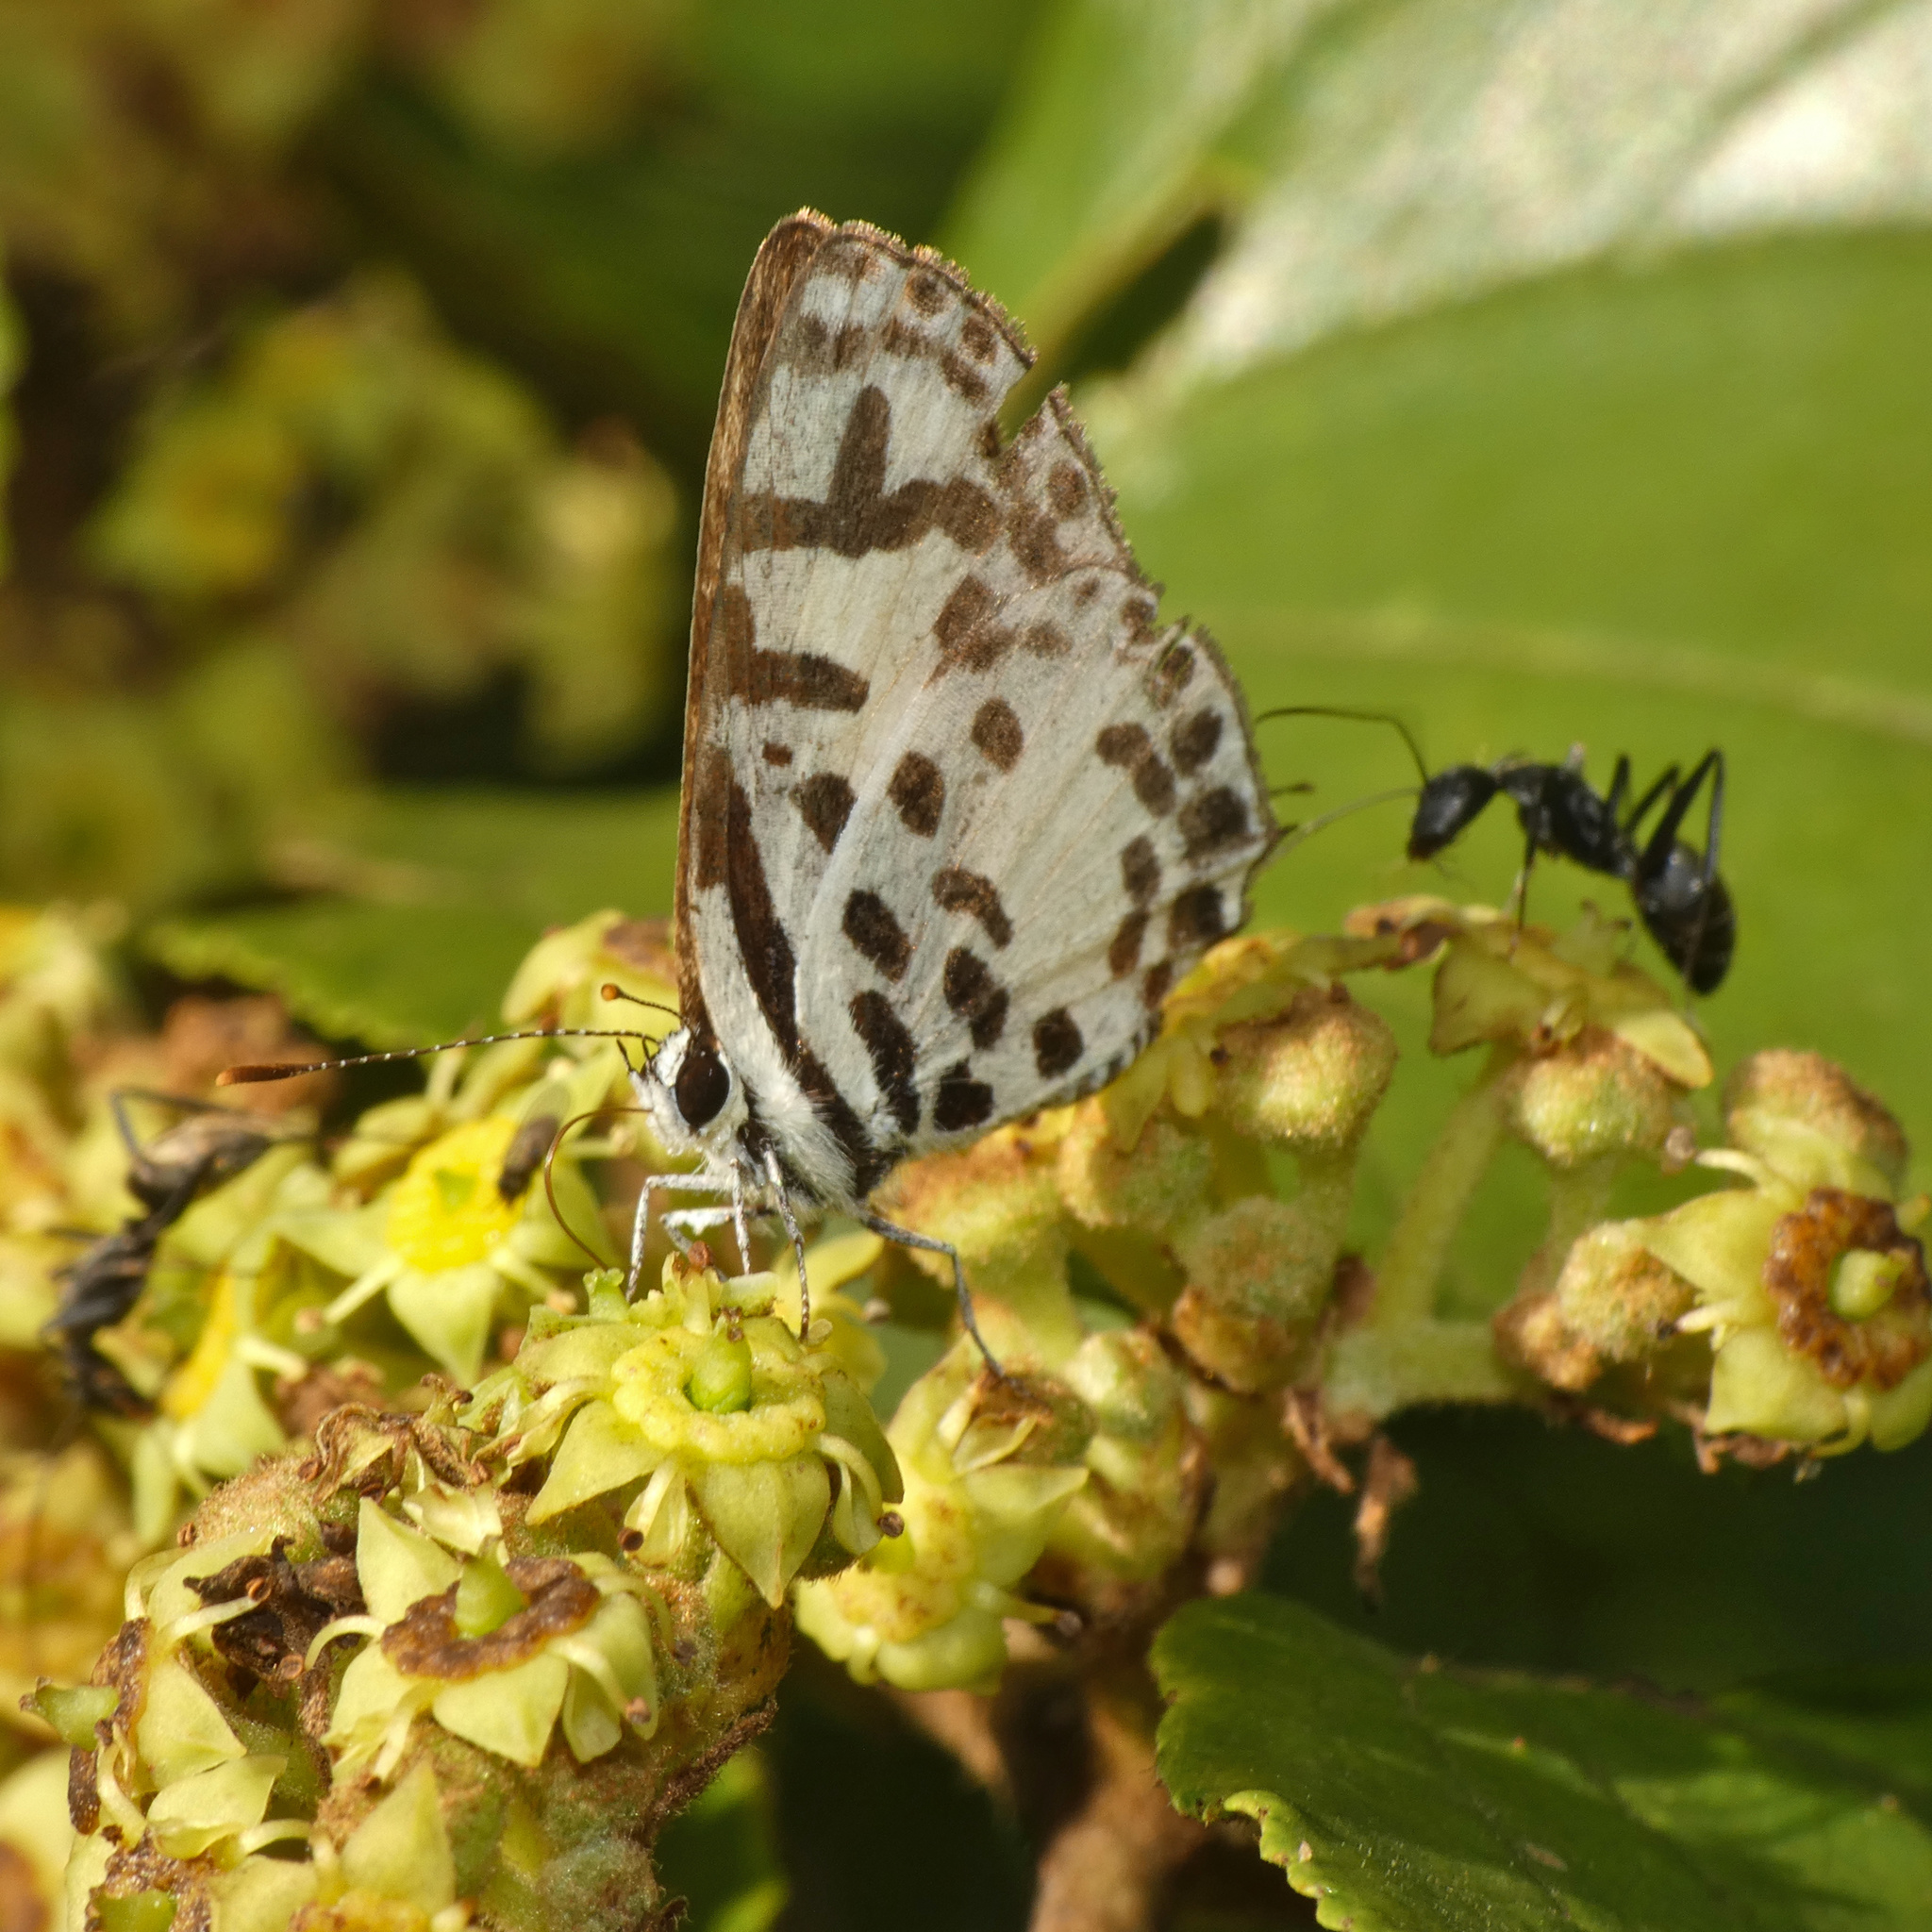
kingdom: Animalia
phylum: Arthropoda
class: Insecta
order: Lepidoptera
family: Lycaenidae
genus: Castalius
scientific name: Castalius calice
